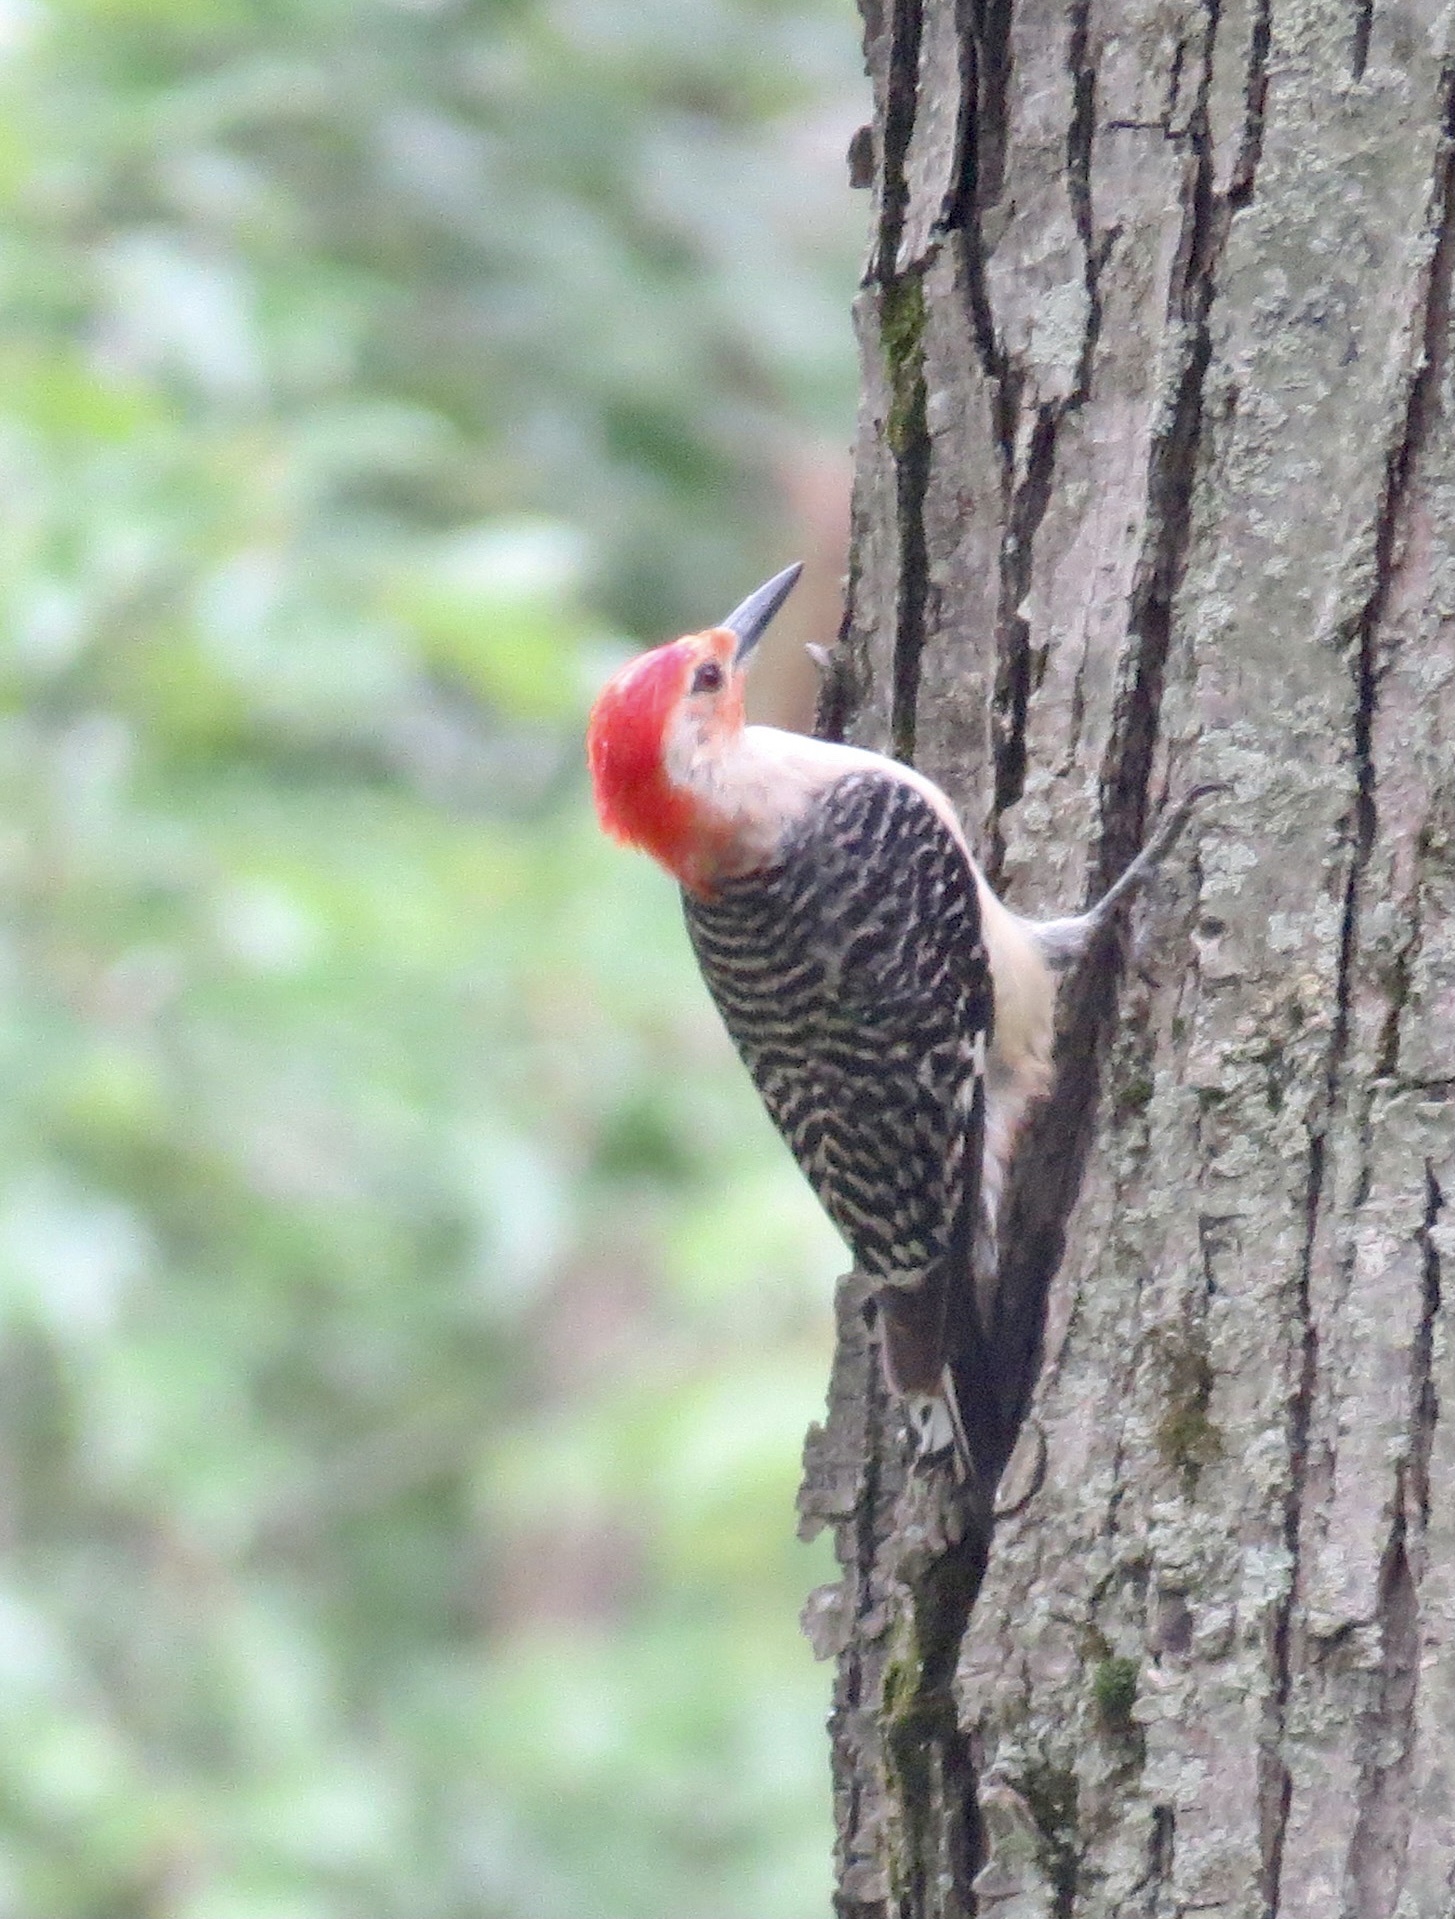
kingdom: Animalia
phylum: Chordata
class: Aves
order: Piciformes
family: Picidae
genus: Melanerpes
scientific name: Melanerpes carolinus
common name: Red-bellied woodpecker
